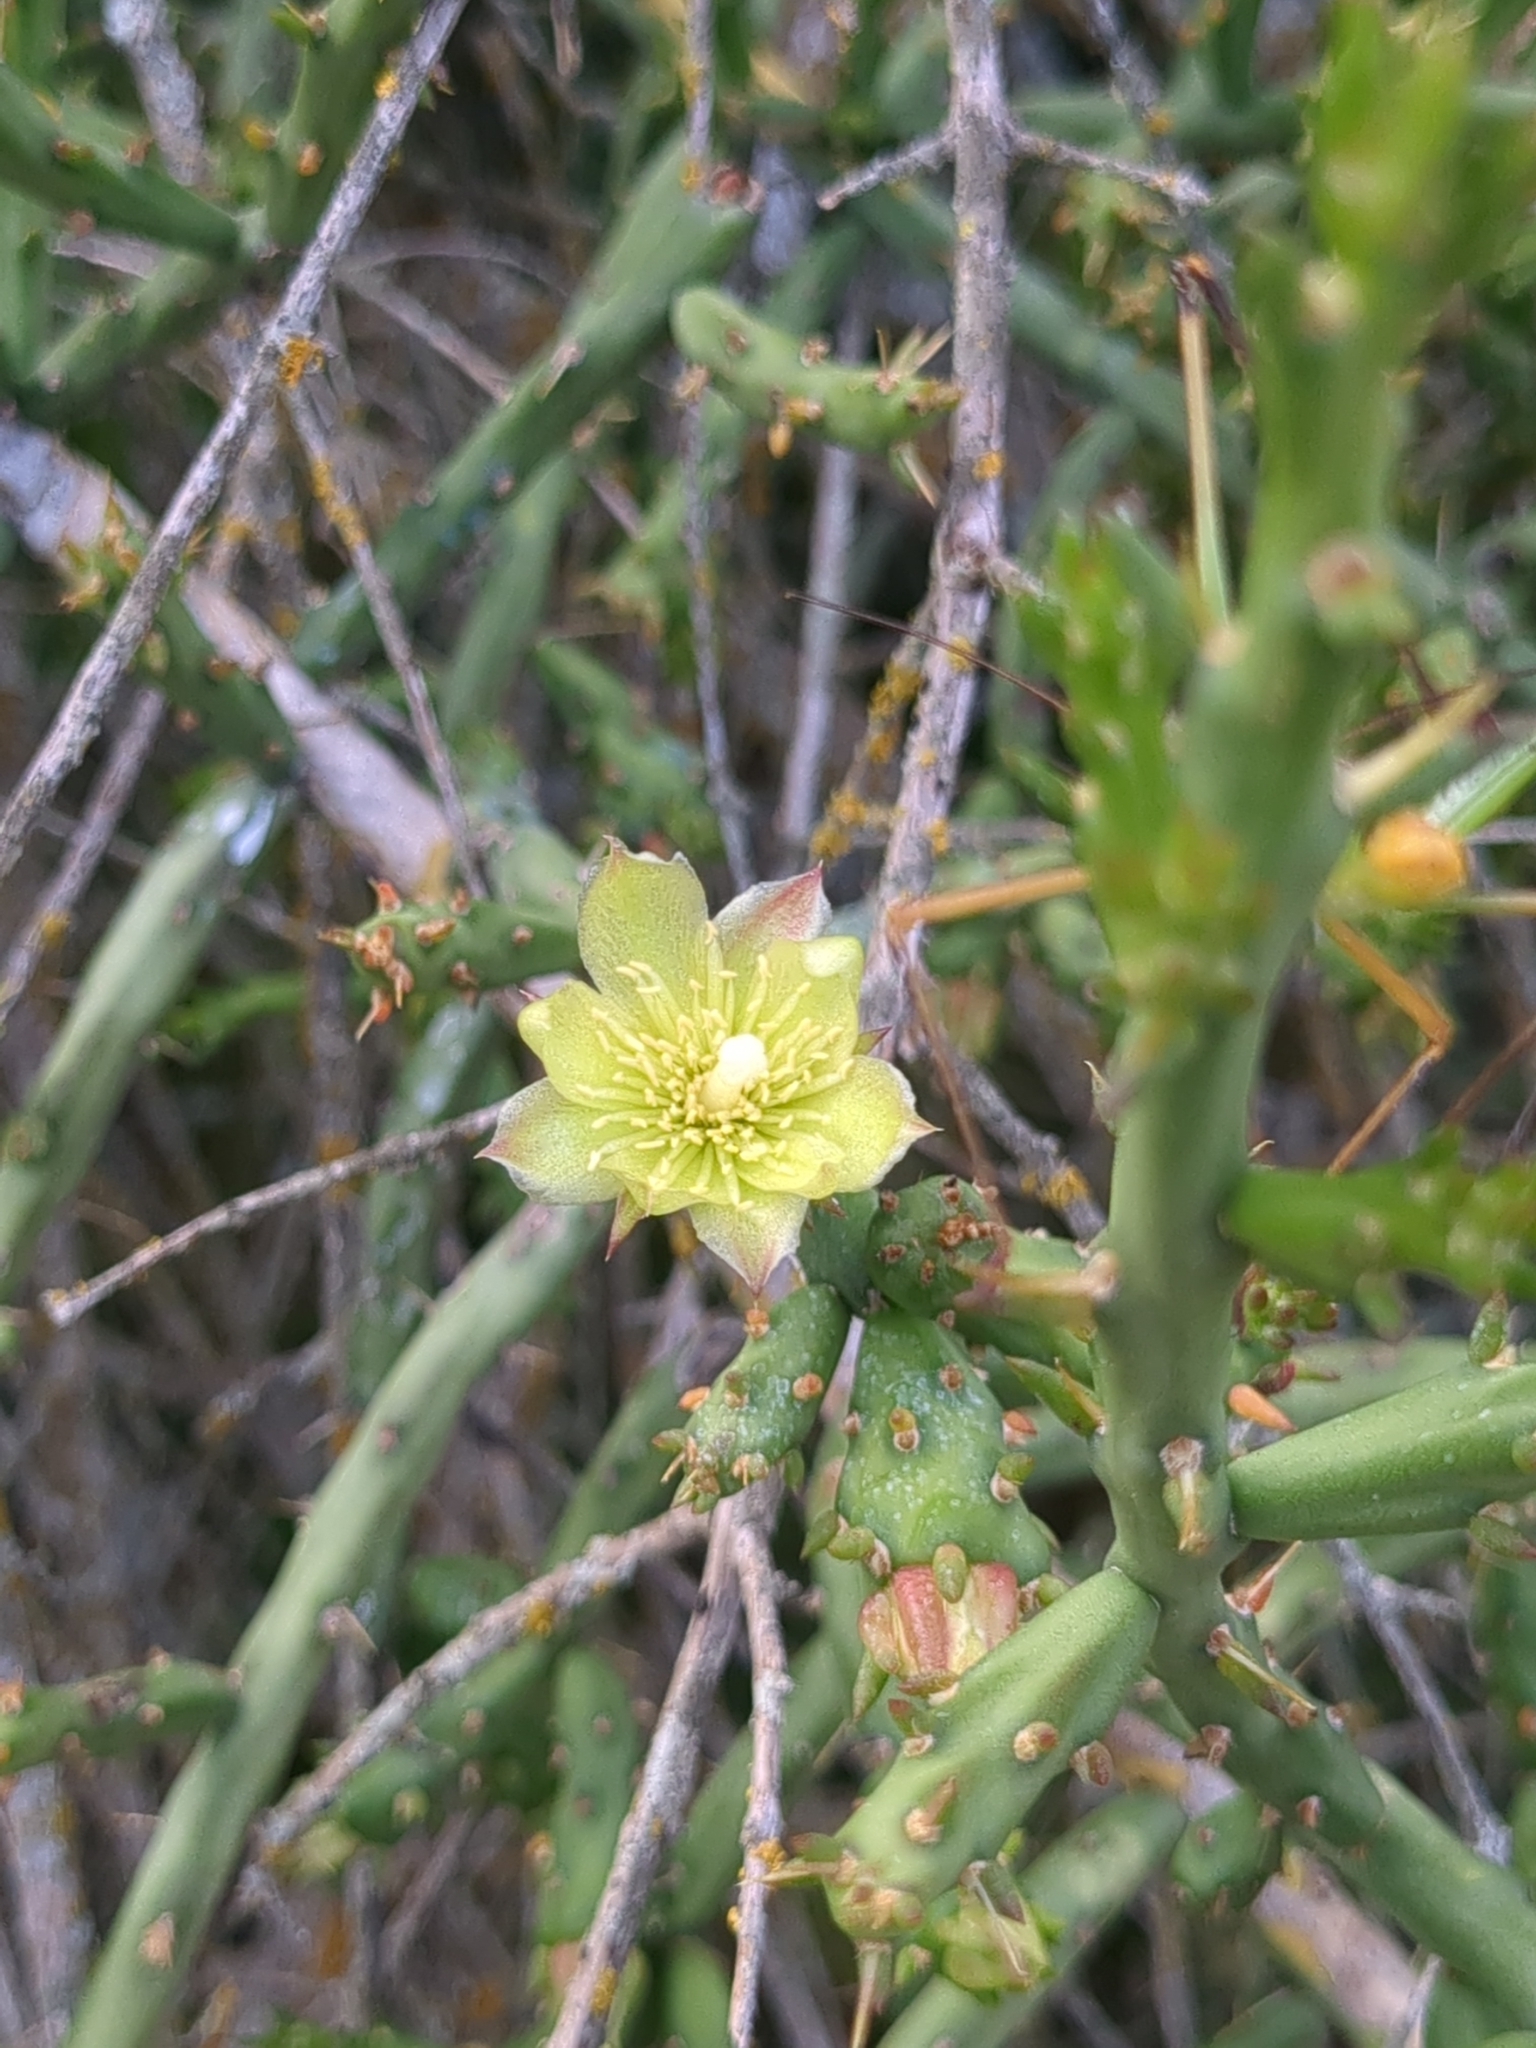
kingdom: Plantae
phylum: Tracheophyta
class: Magnoliopsida
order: Caryophyllales
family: Cactaceae
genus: Cylindropuntia
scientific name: Cylindropuntia leptocaulis
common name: Christmas cactus
